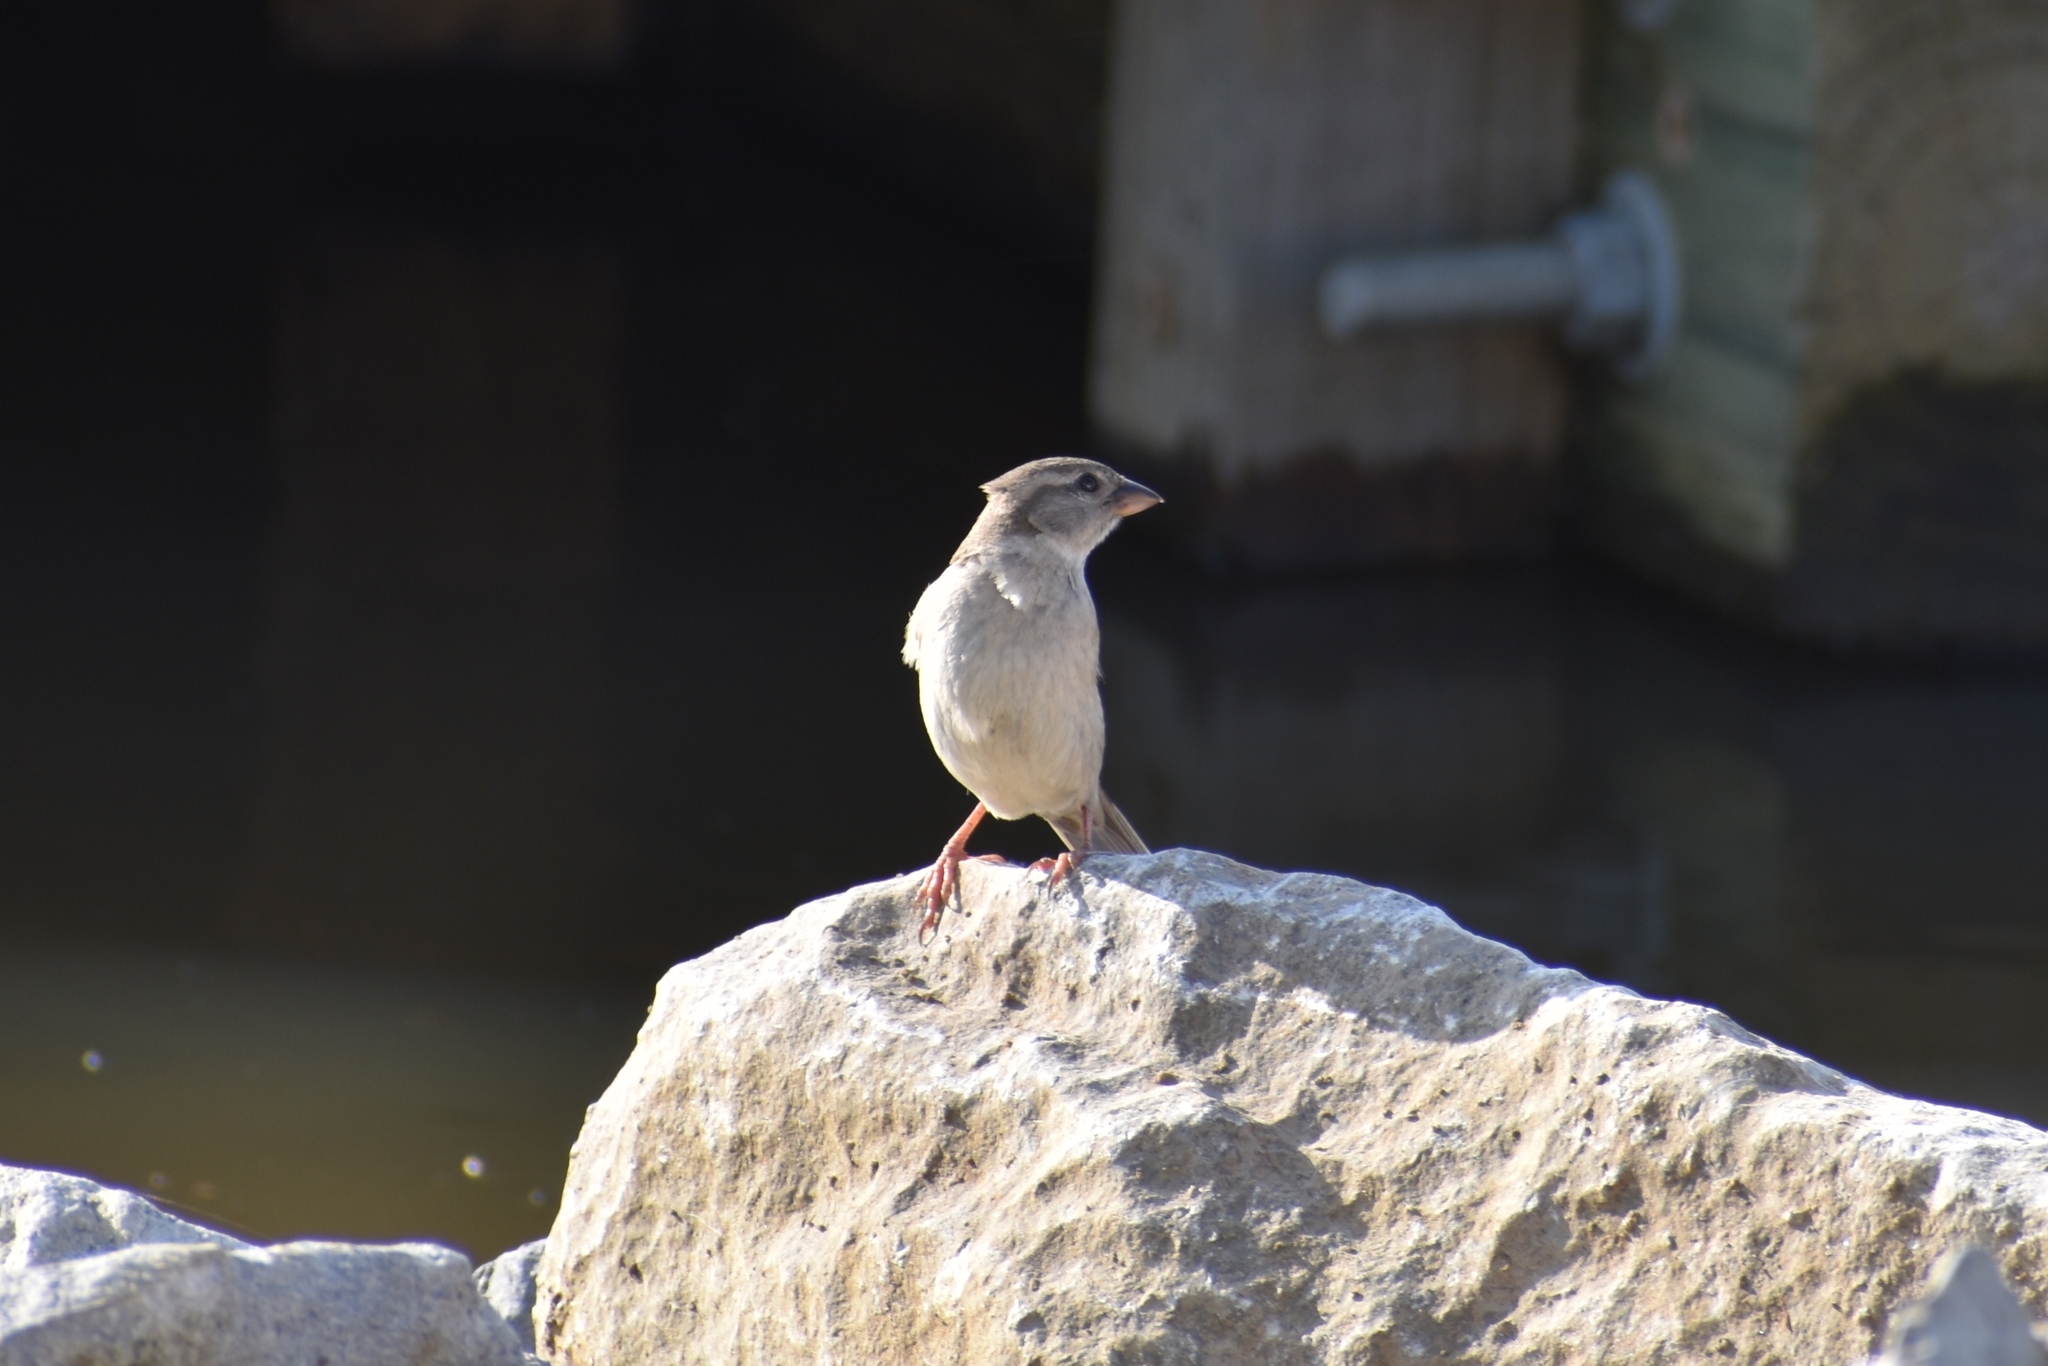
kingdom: Animalia
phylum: Chordata
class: Aves
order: Passeriformes
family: Passeridae
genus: Passer
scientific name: Passer domesticus
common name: House sparrow
